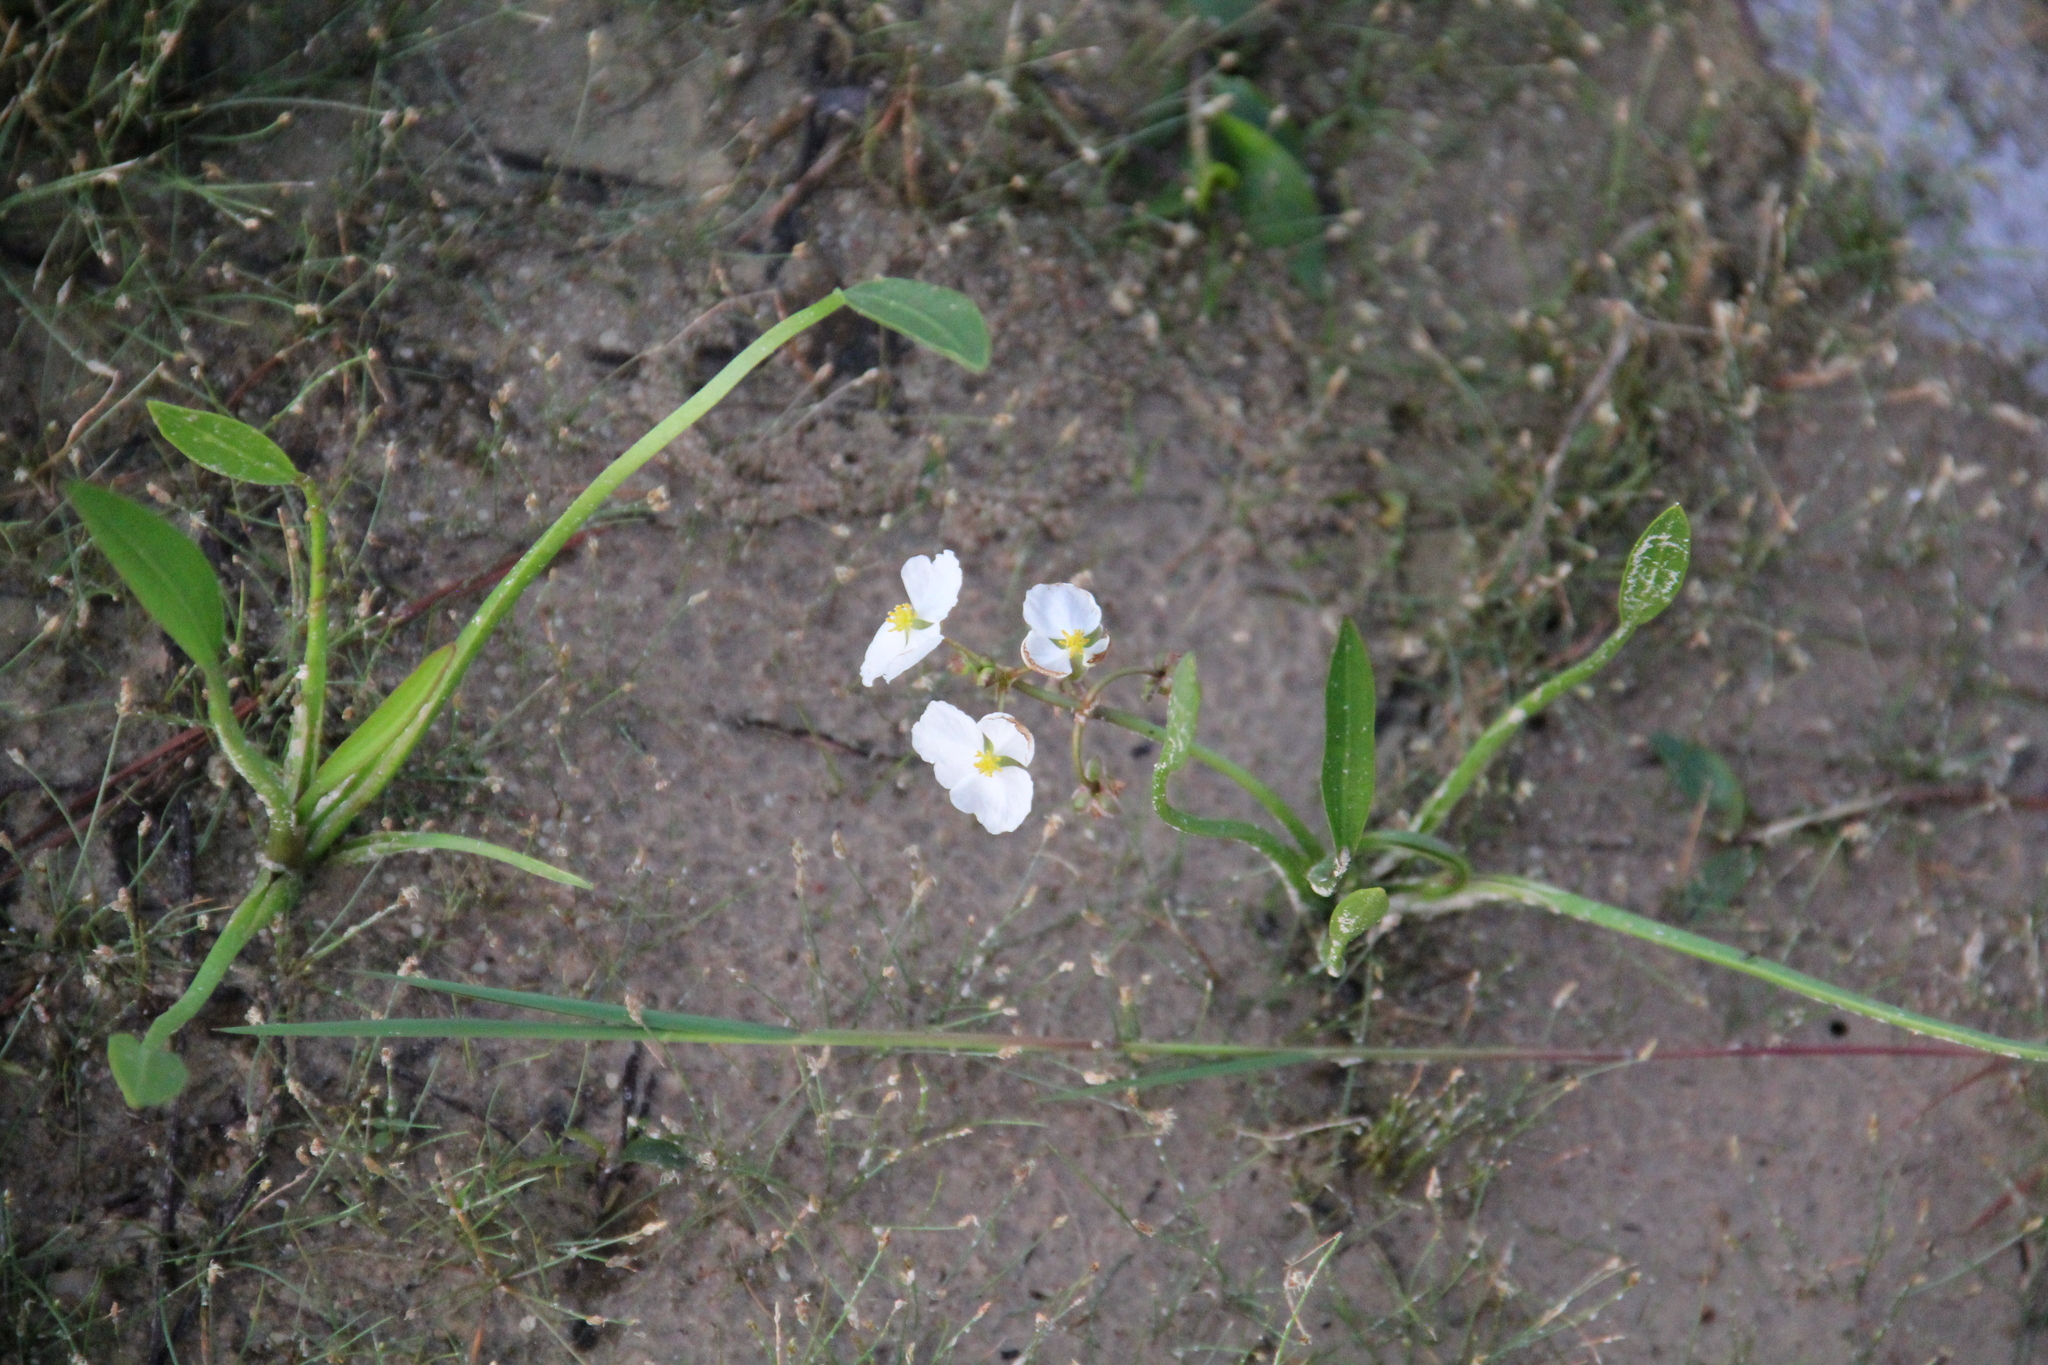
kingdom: Plantae
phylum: Tracheophyta
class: Liliopsida
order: Alismatales
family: Alismataceae
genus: Sagittaria
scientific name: Sagittaria platyphylla
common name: Broad-leaf arrowhead
